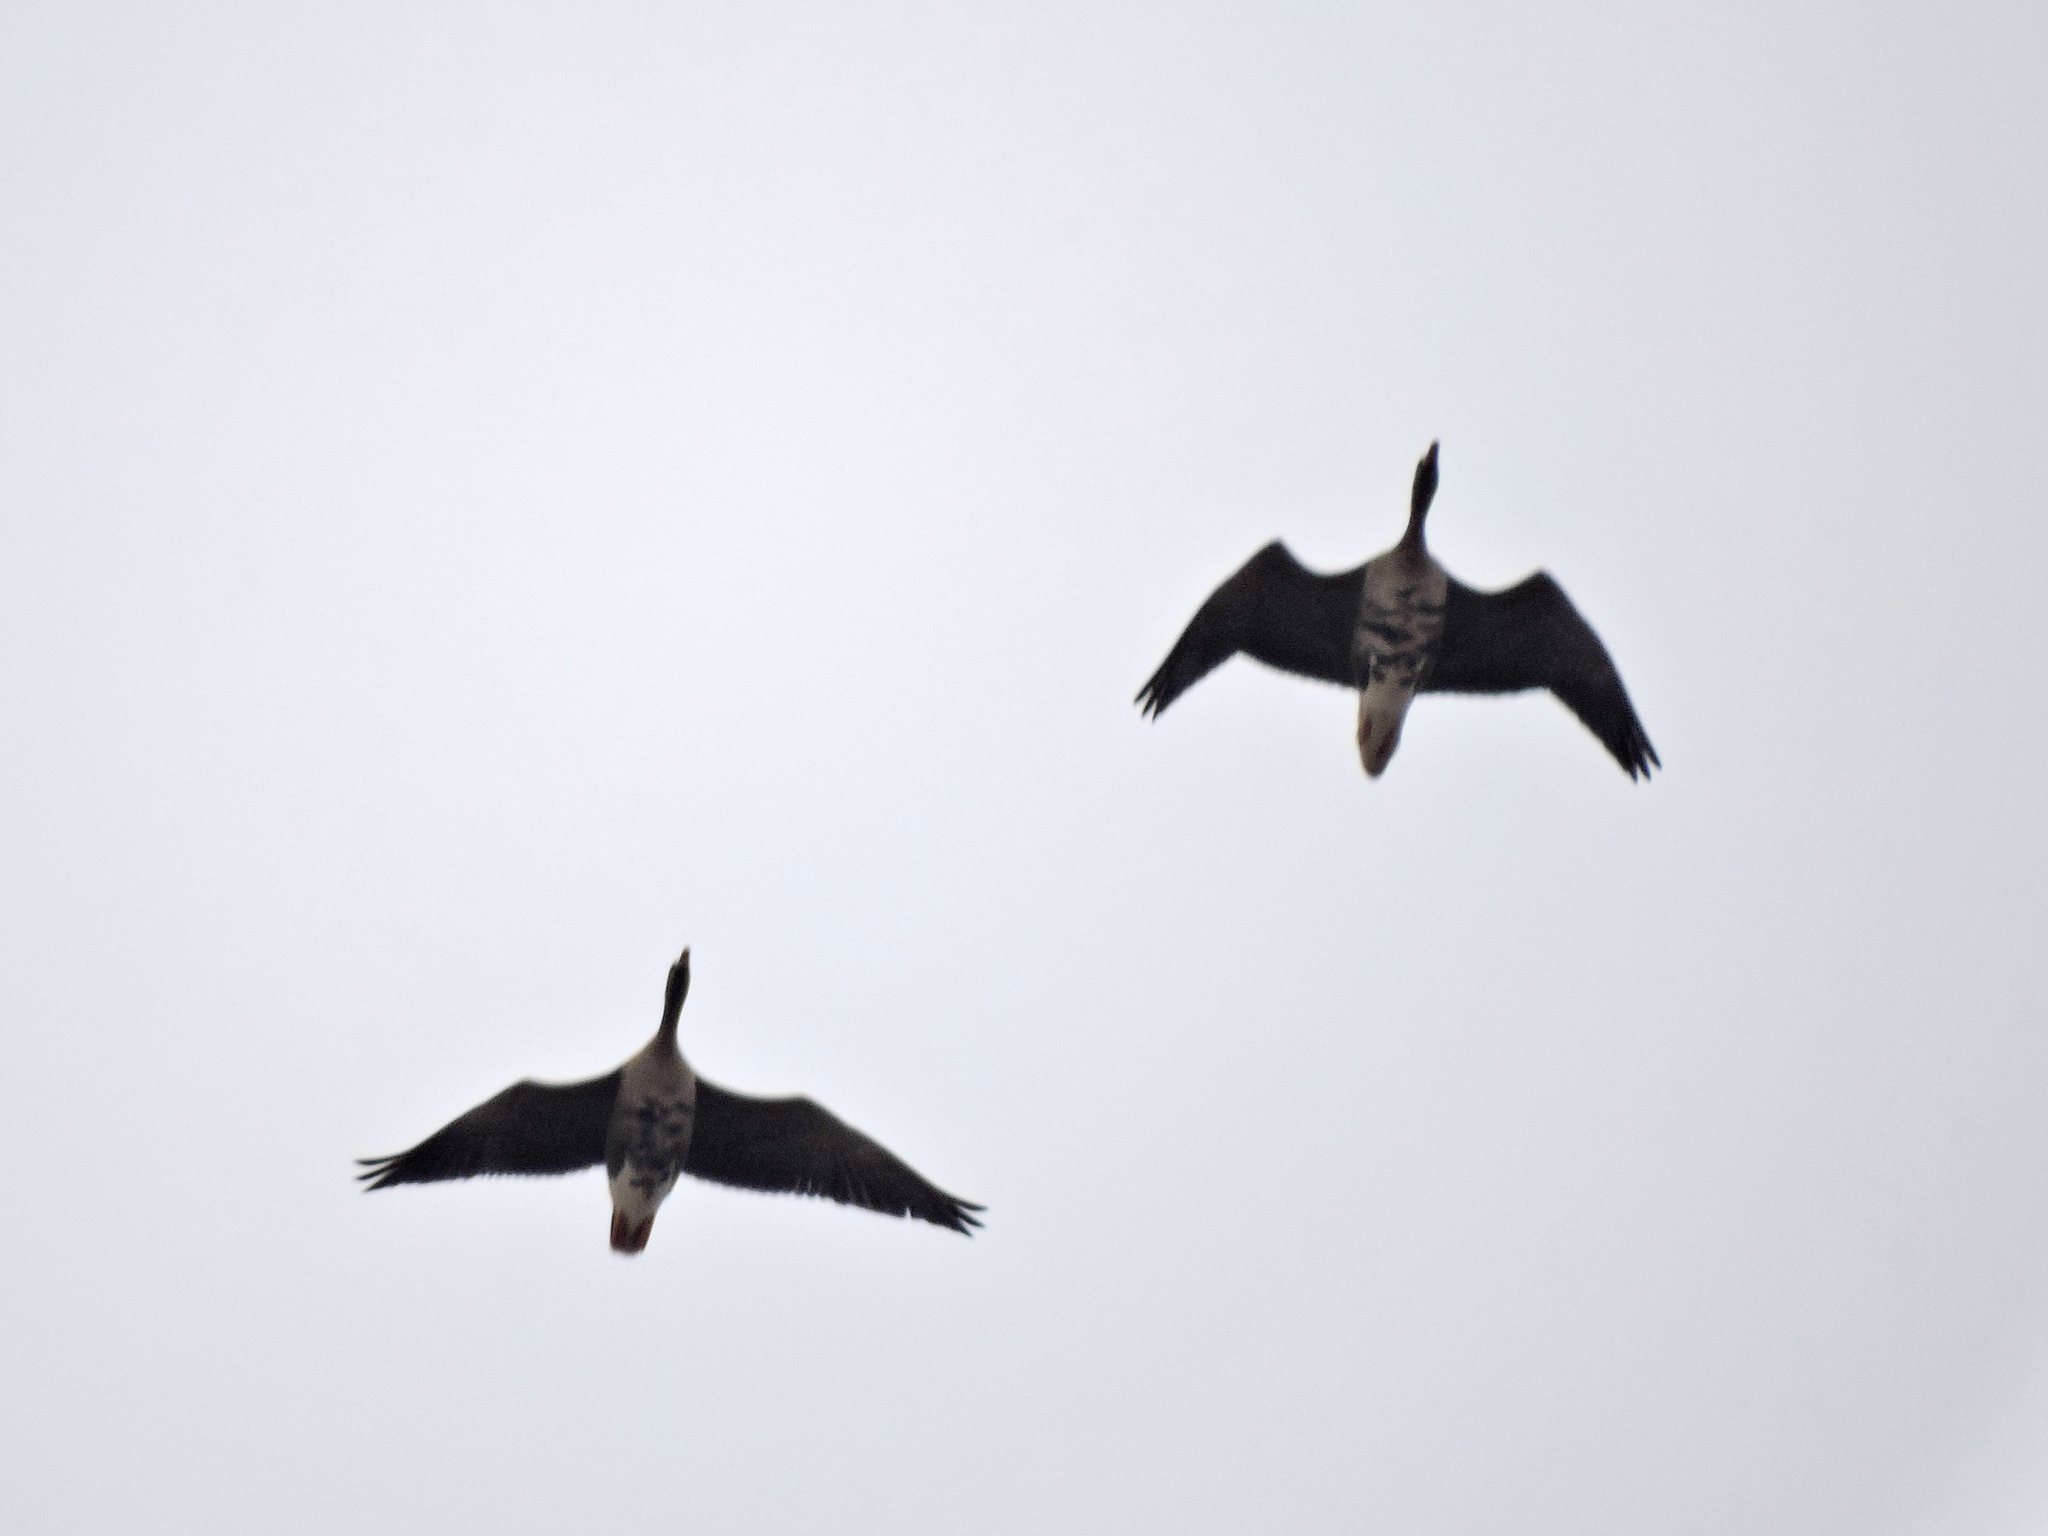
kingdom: Animalia
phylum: Chordata
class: Aves
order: Anseriformes
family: Anatidae
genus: Anser
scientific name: Anser albifrons
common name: Greater white-fronted goose
